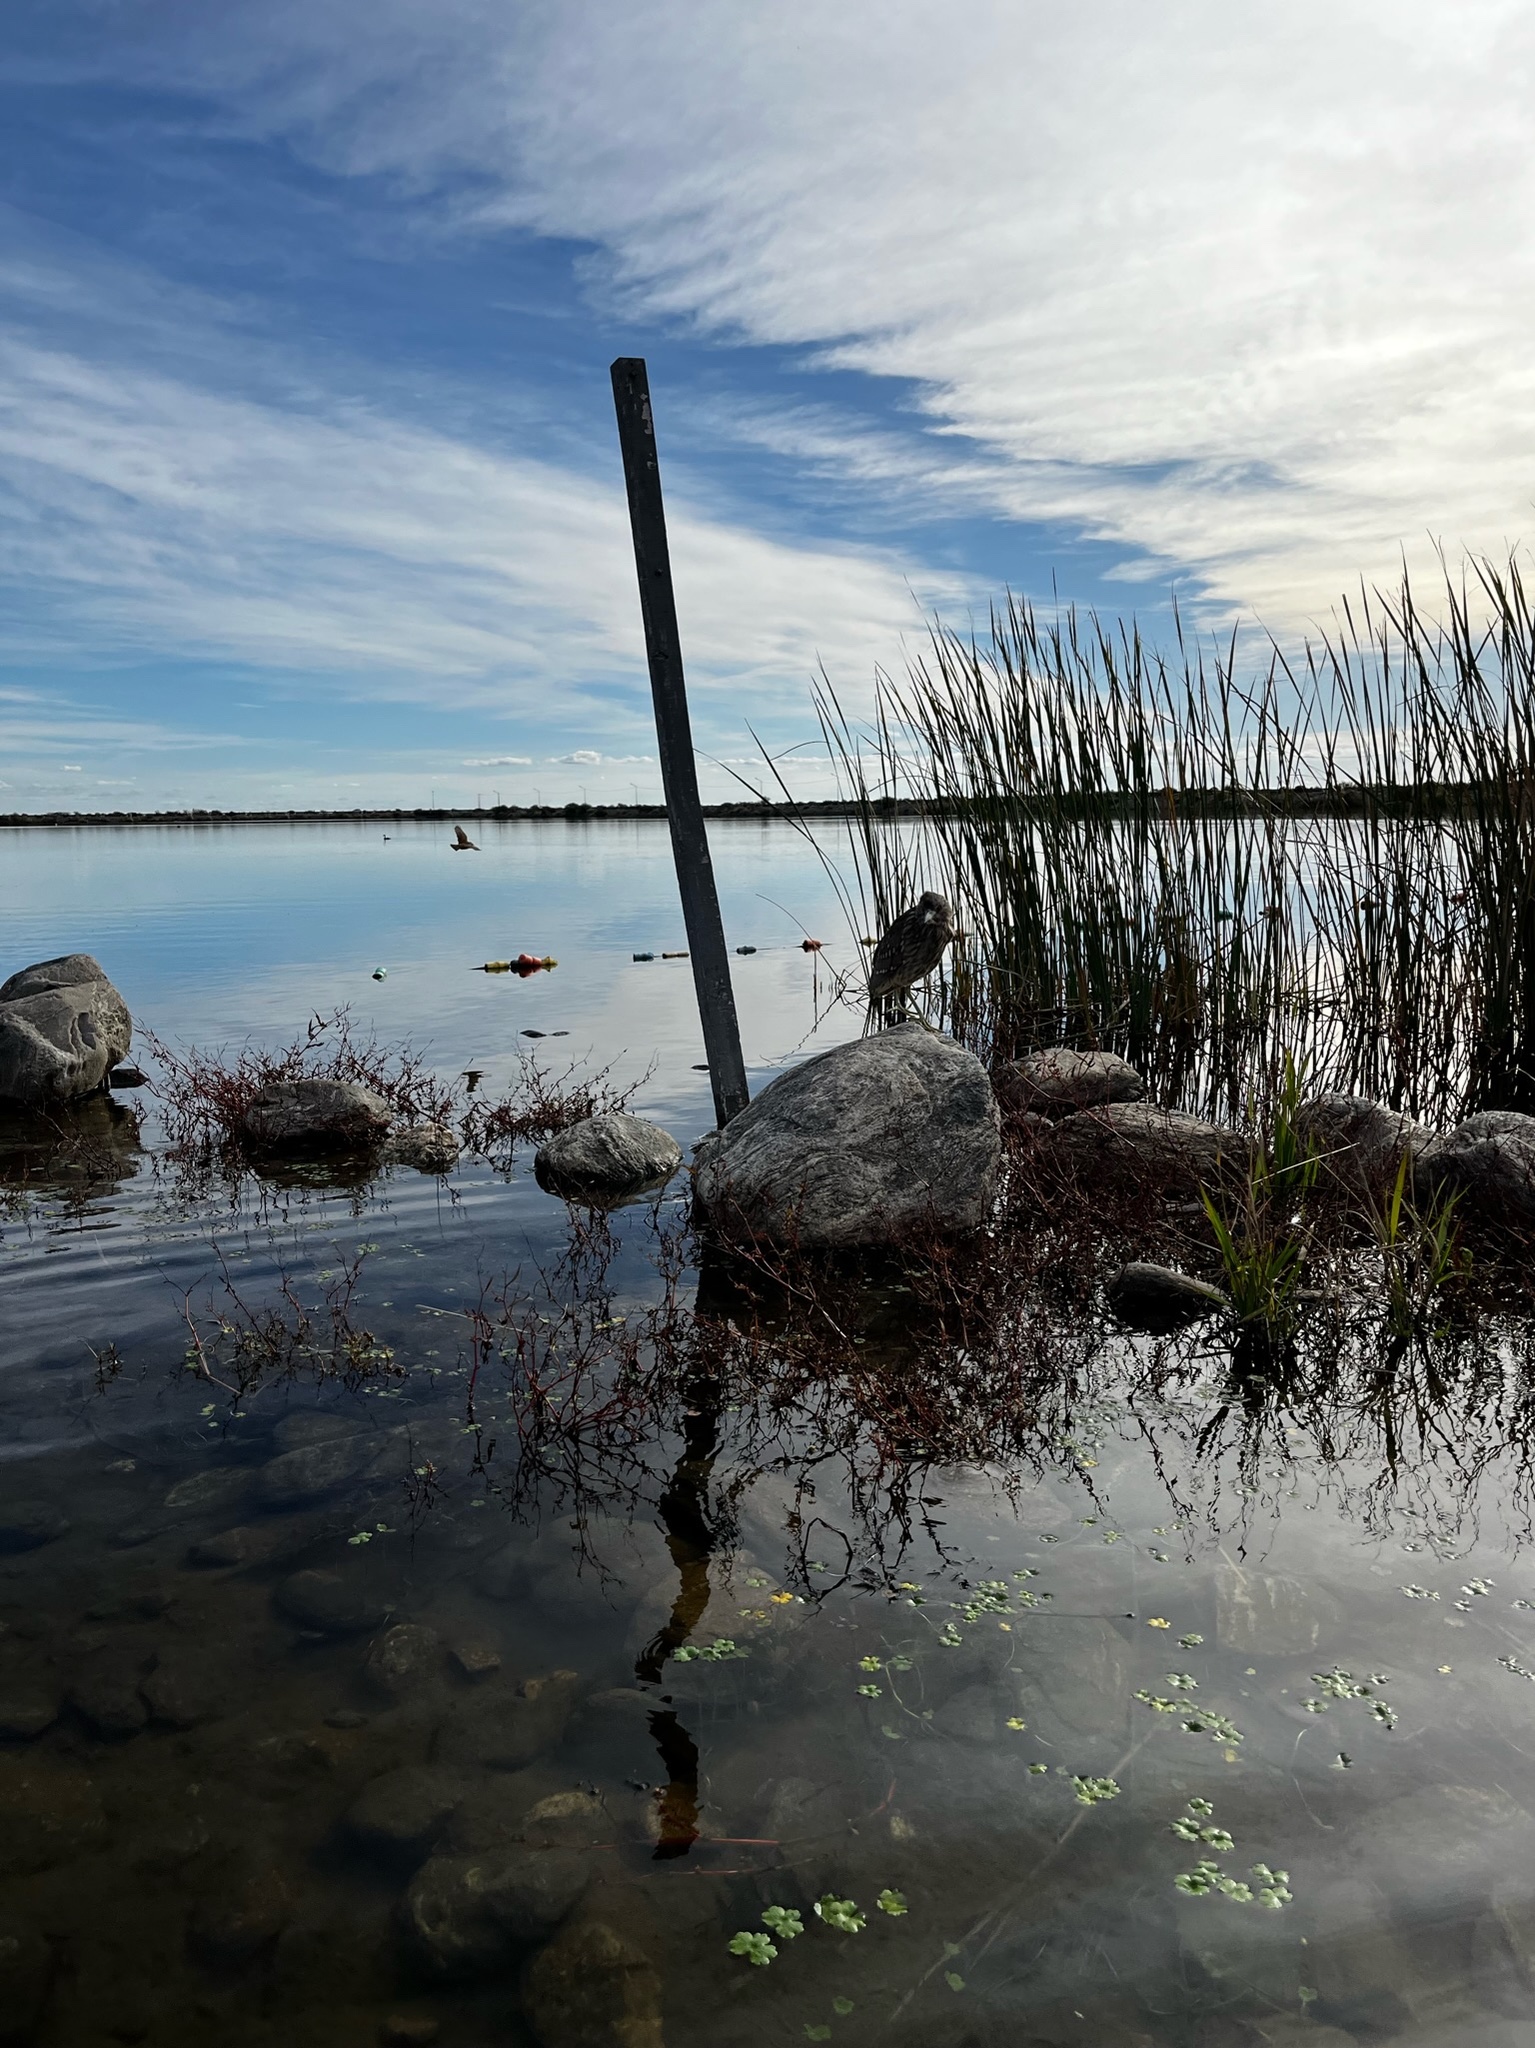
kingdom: Animalia
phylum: Chordata
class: Aves
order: Pelecaniformes
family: Ardeidae
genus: Nycticorax
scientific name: Nycticorax nycticorax
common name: Black-crowned night heron
